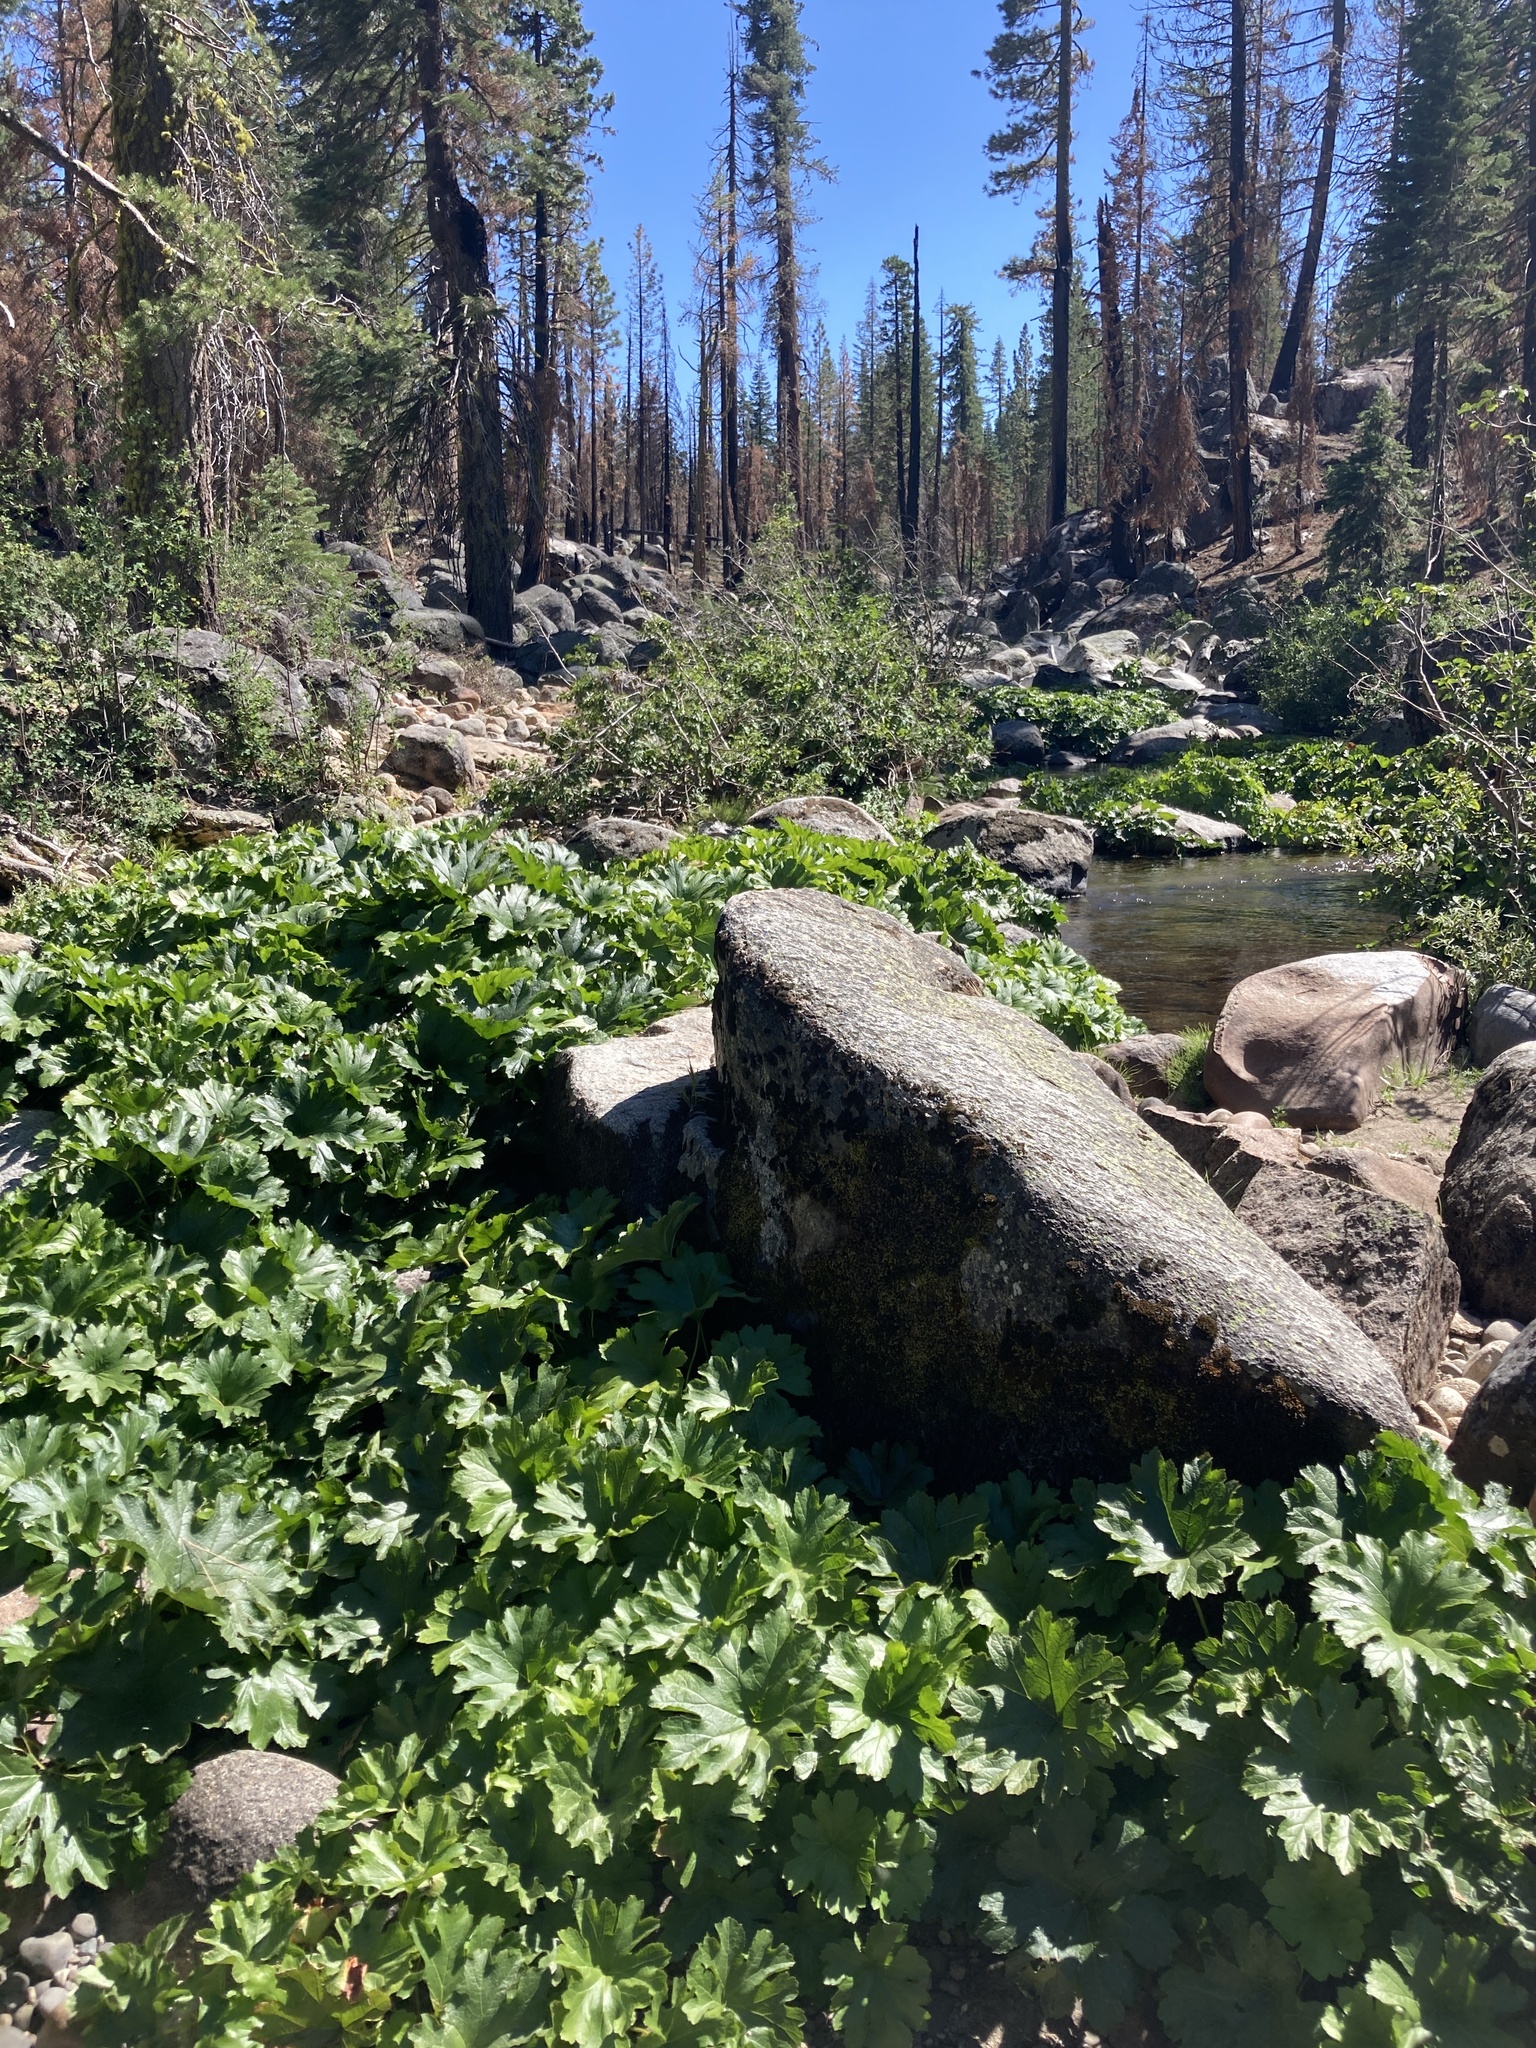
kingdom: Plantae
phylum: Tracheophyta
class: Magnoliopsida
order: Saxifragales
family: Saxifragaceae
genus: Darmera
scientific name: Darmera peltata
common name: Indian-rhubarb
